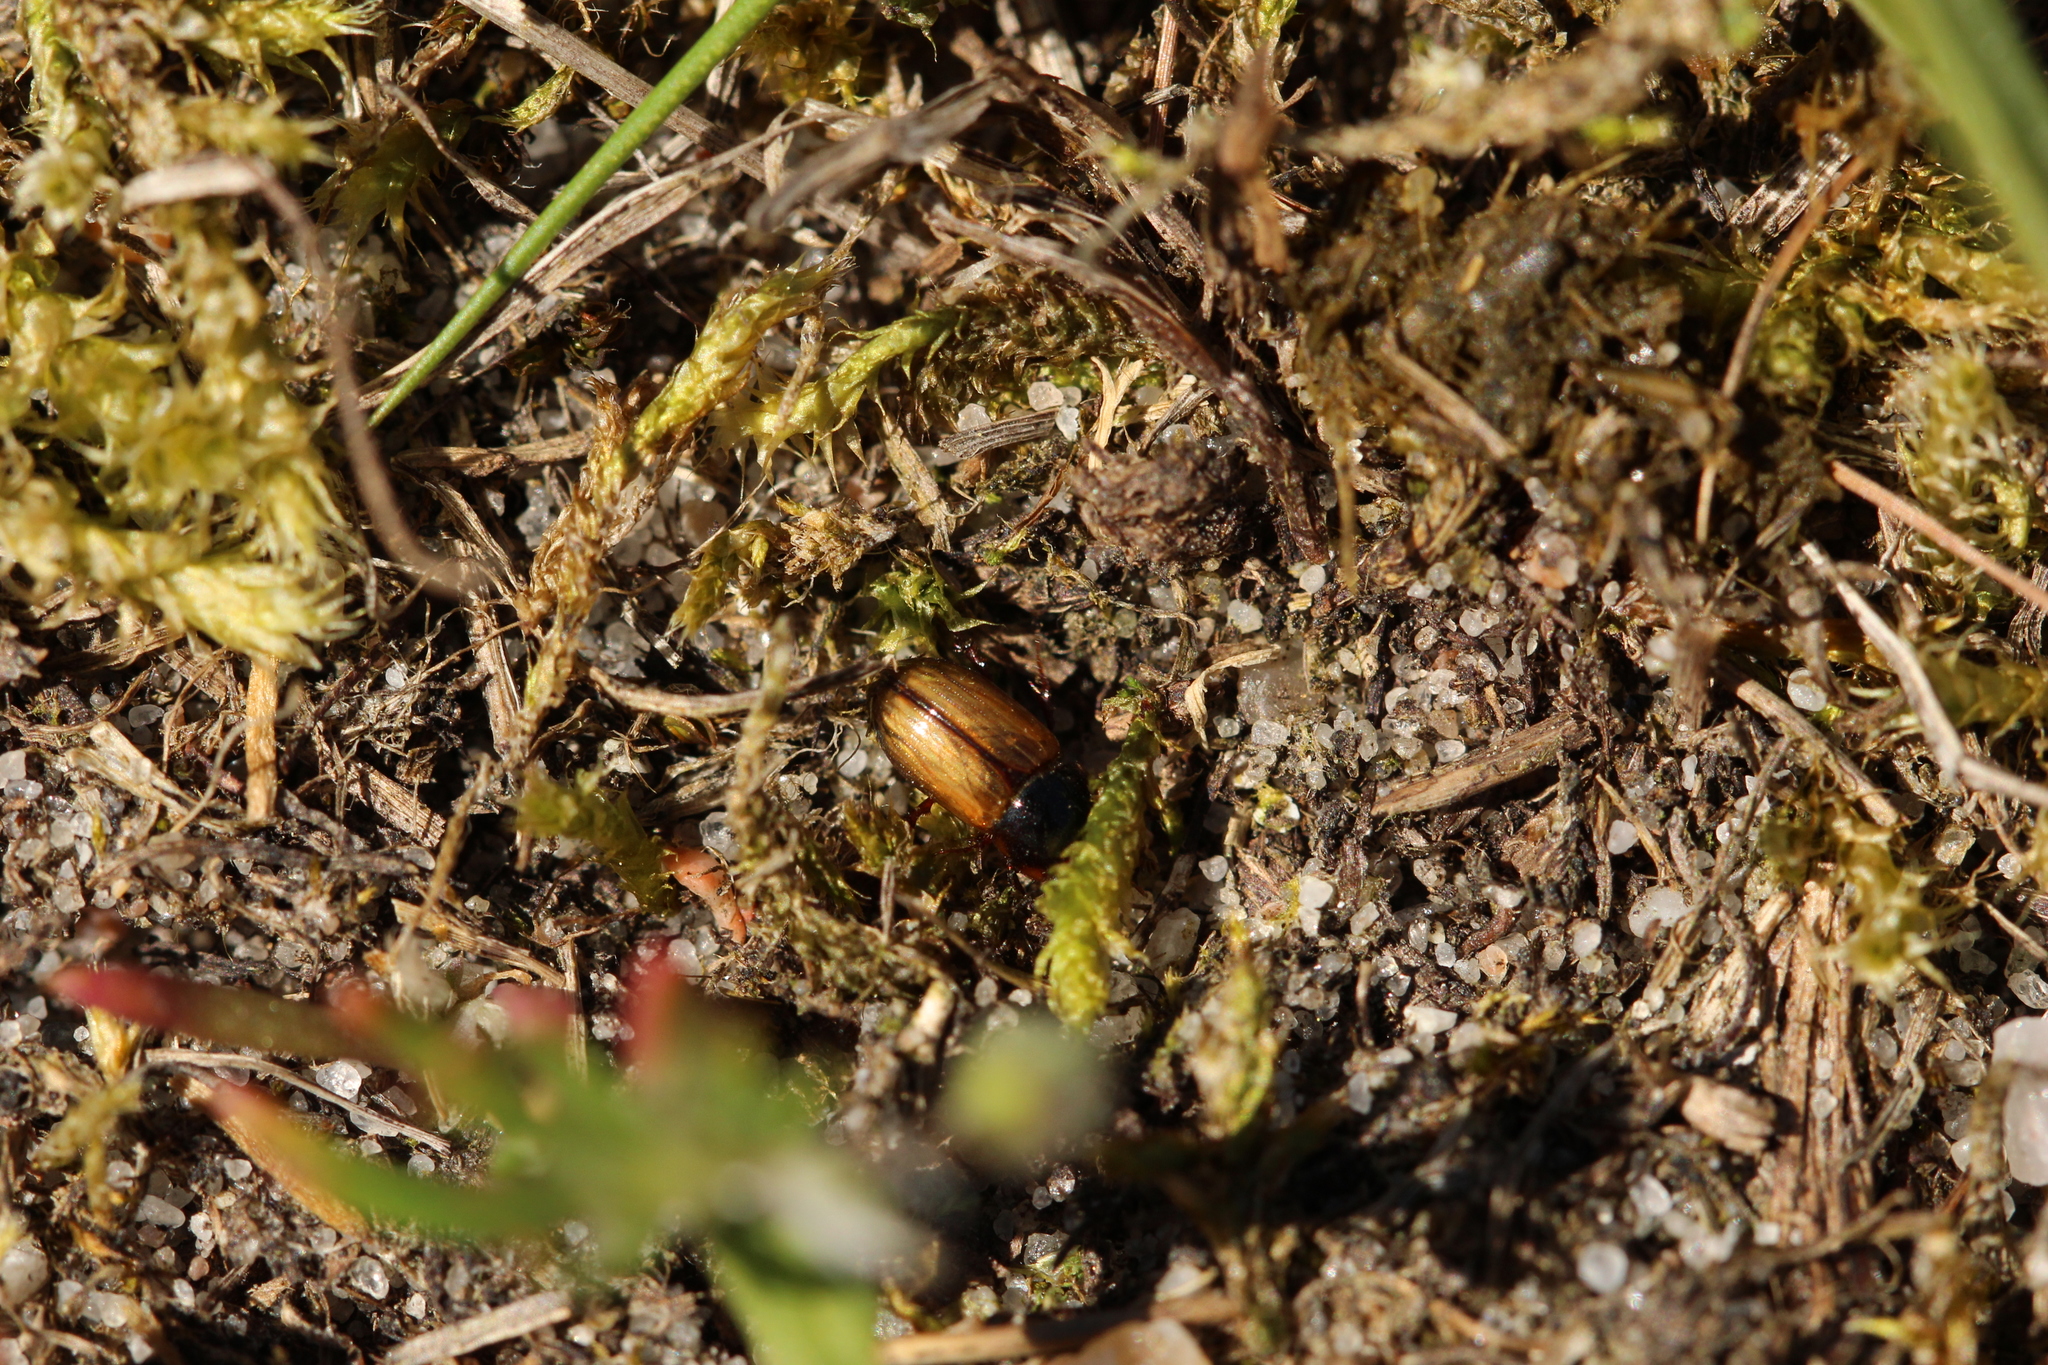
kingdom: Animalia
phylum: Arthropoda
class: Insecta
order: Coleoptera
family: Scarabaeidae
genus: Bodiloides
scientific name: Bodiloides ictericus
